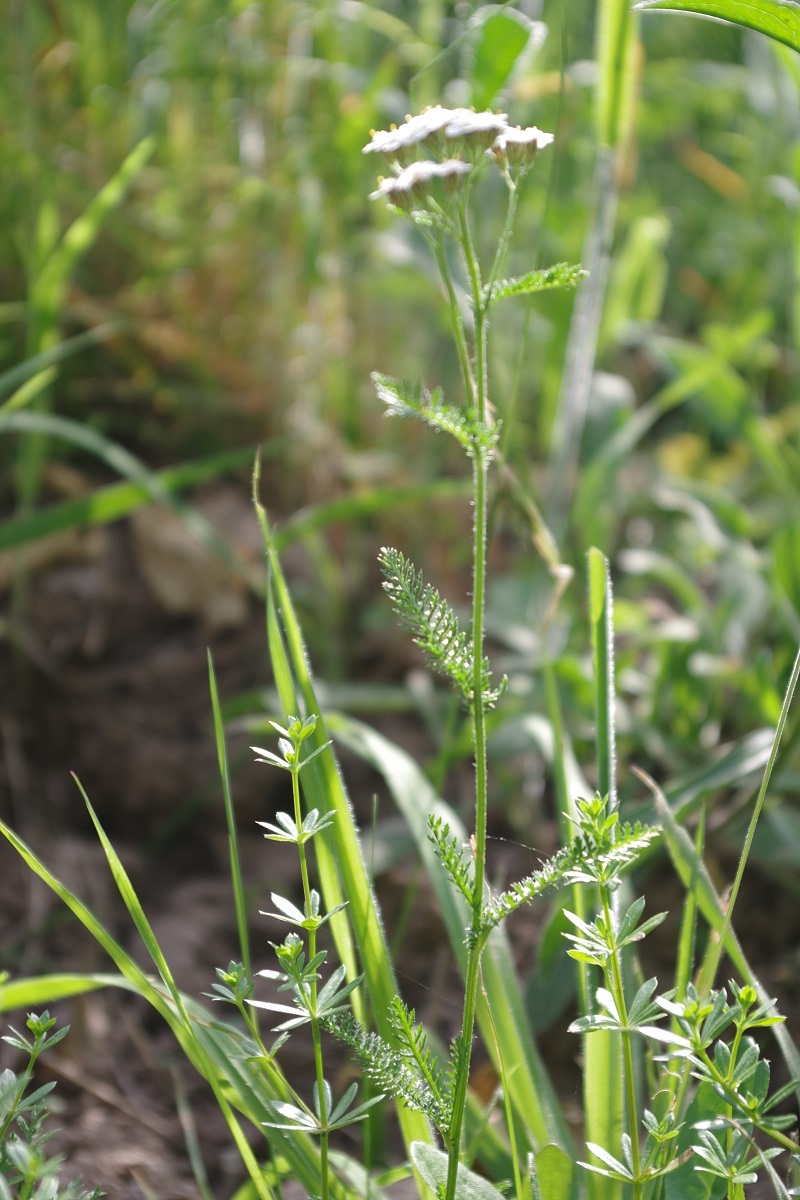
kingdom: Plantae
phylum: Tracheophyta
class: Magnoliopsida
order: Asterales
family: Asteraceae
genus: Achillea
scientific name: Achillea millefolium
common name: Yarrow
